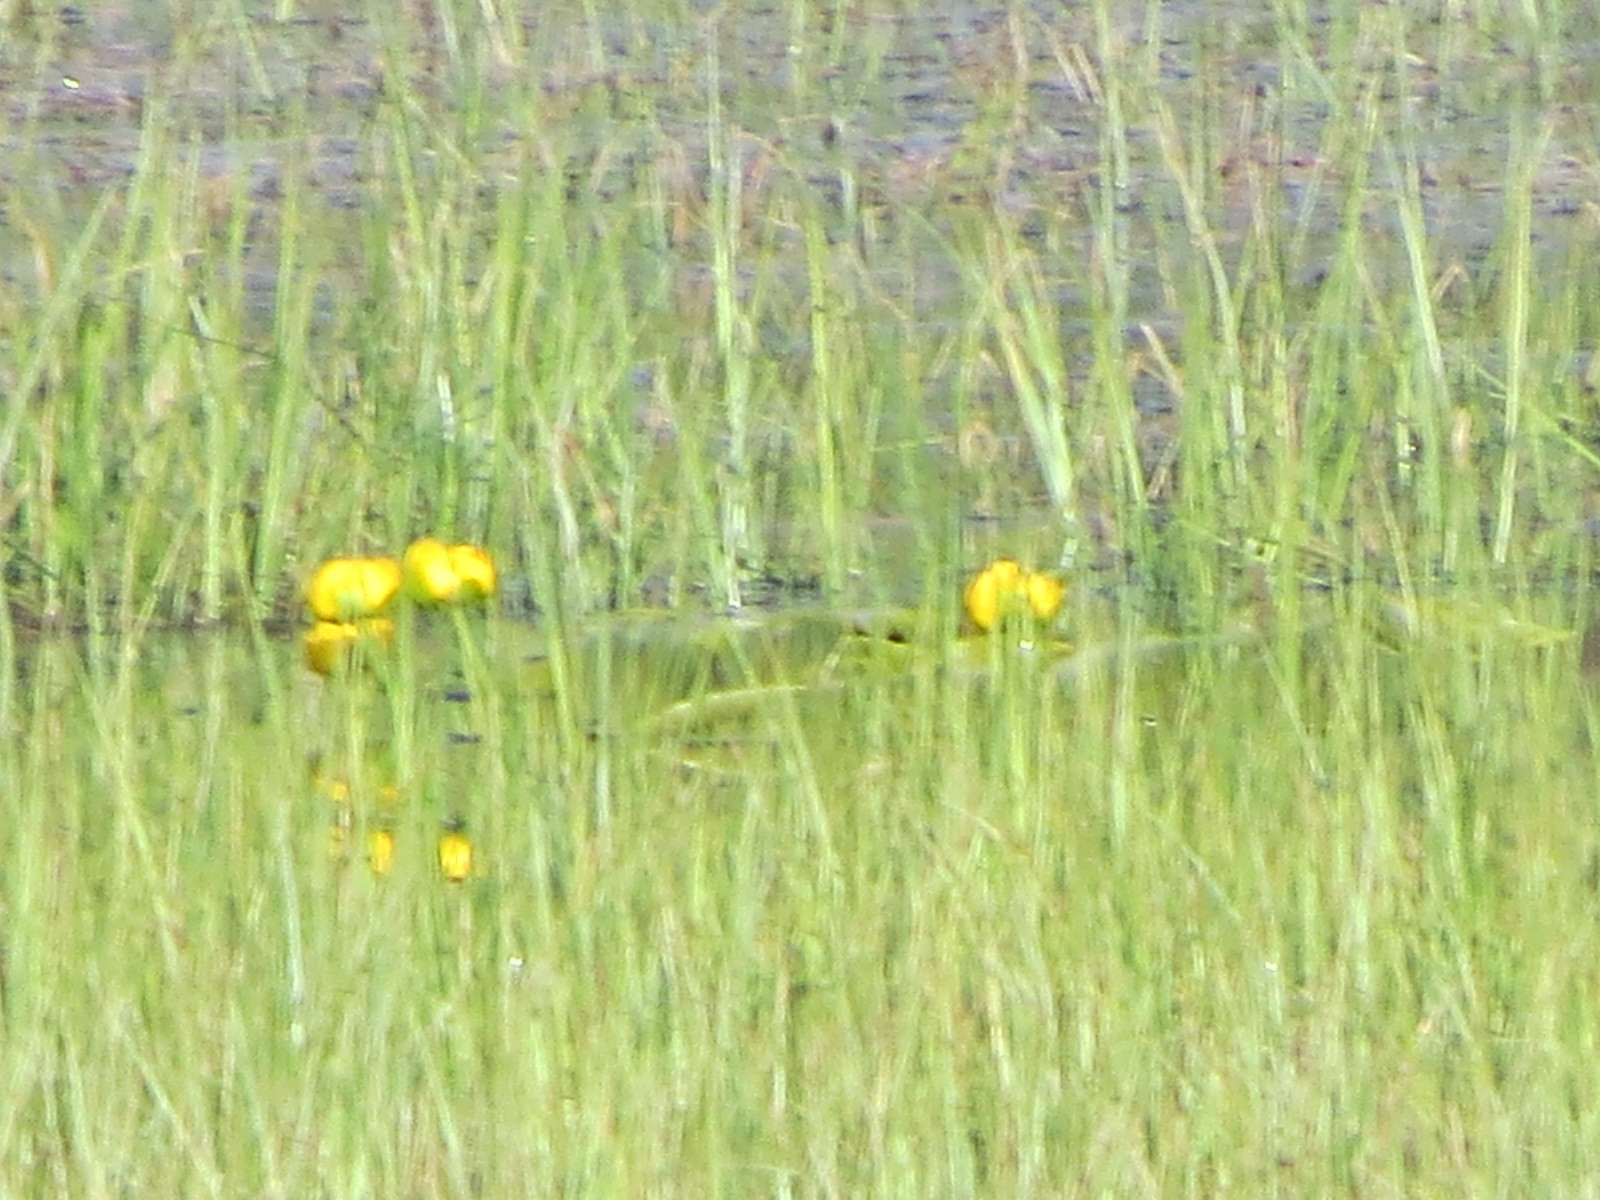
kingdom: Plantae
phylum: Tracheophyta
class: Magnoliopsida
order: Nymphaeales
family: Nymphaeaceae
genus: Nuphar
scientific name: Nuphar polysepala
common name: Rocky mountain cow-lily
